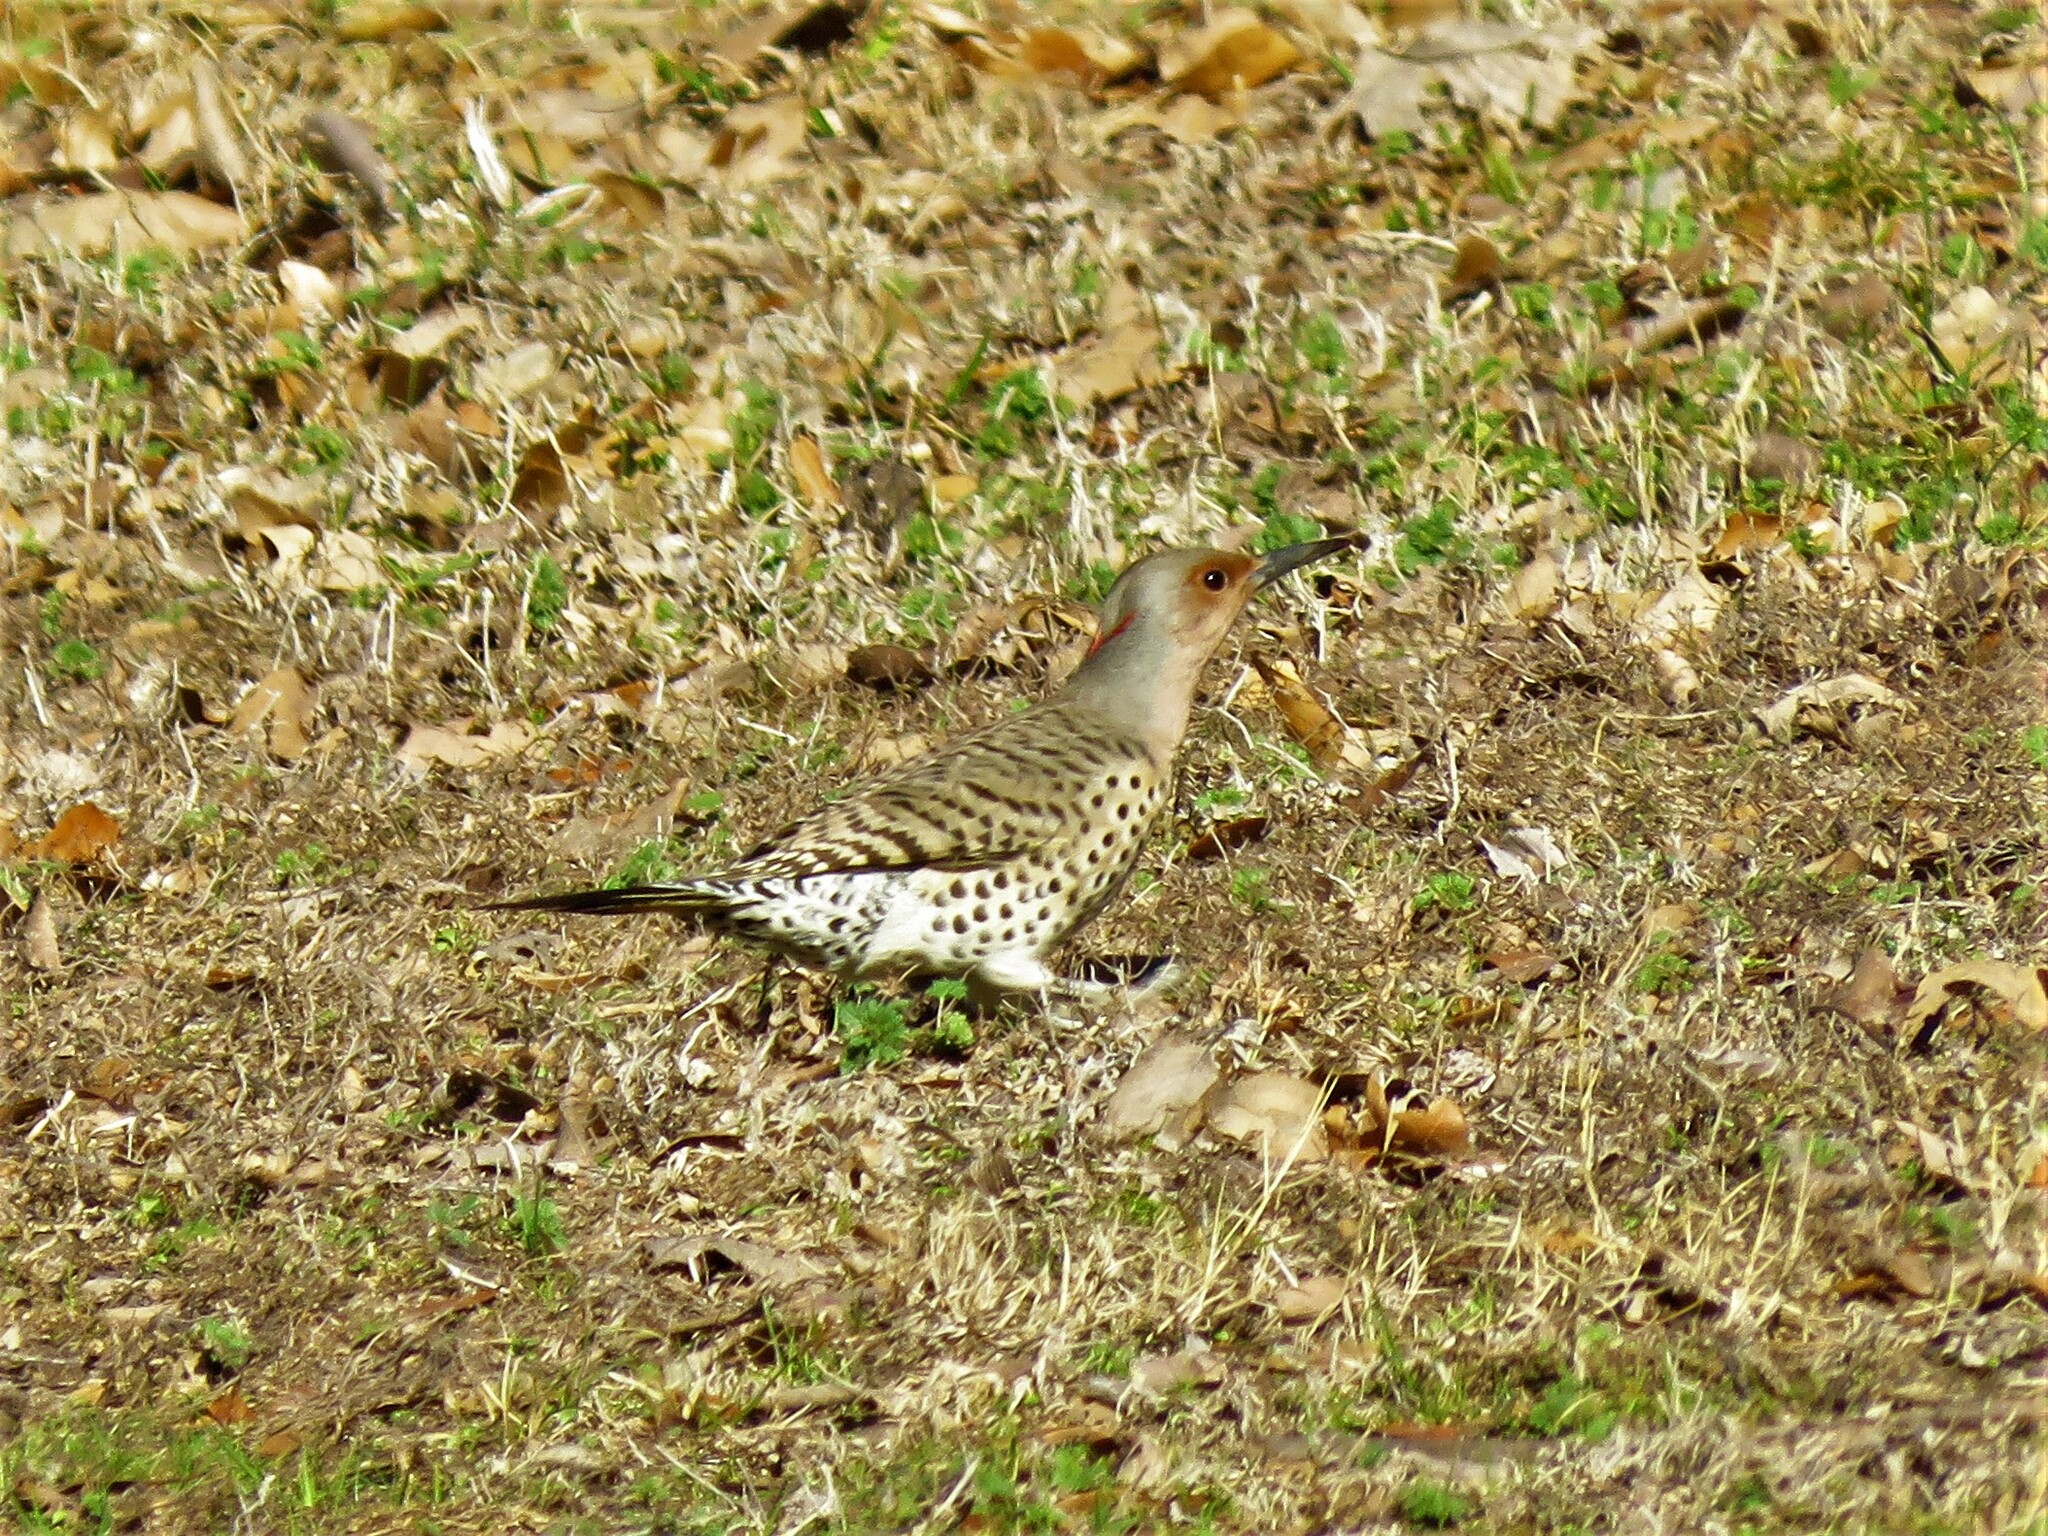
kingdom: Animalia
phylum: Chordata
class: Aves
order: Piciformes
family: Picidae
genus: Colaptes
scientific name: Colaptes auratus
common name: Northern flicker
